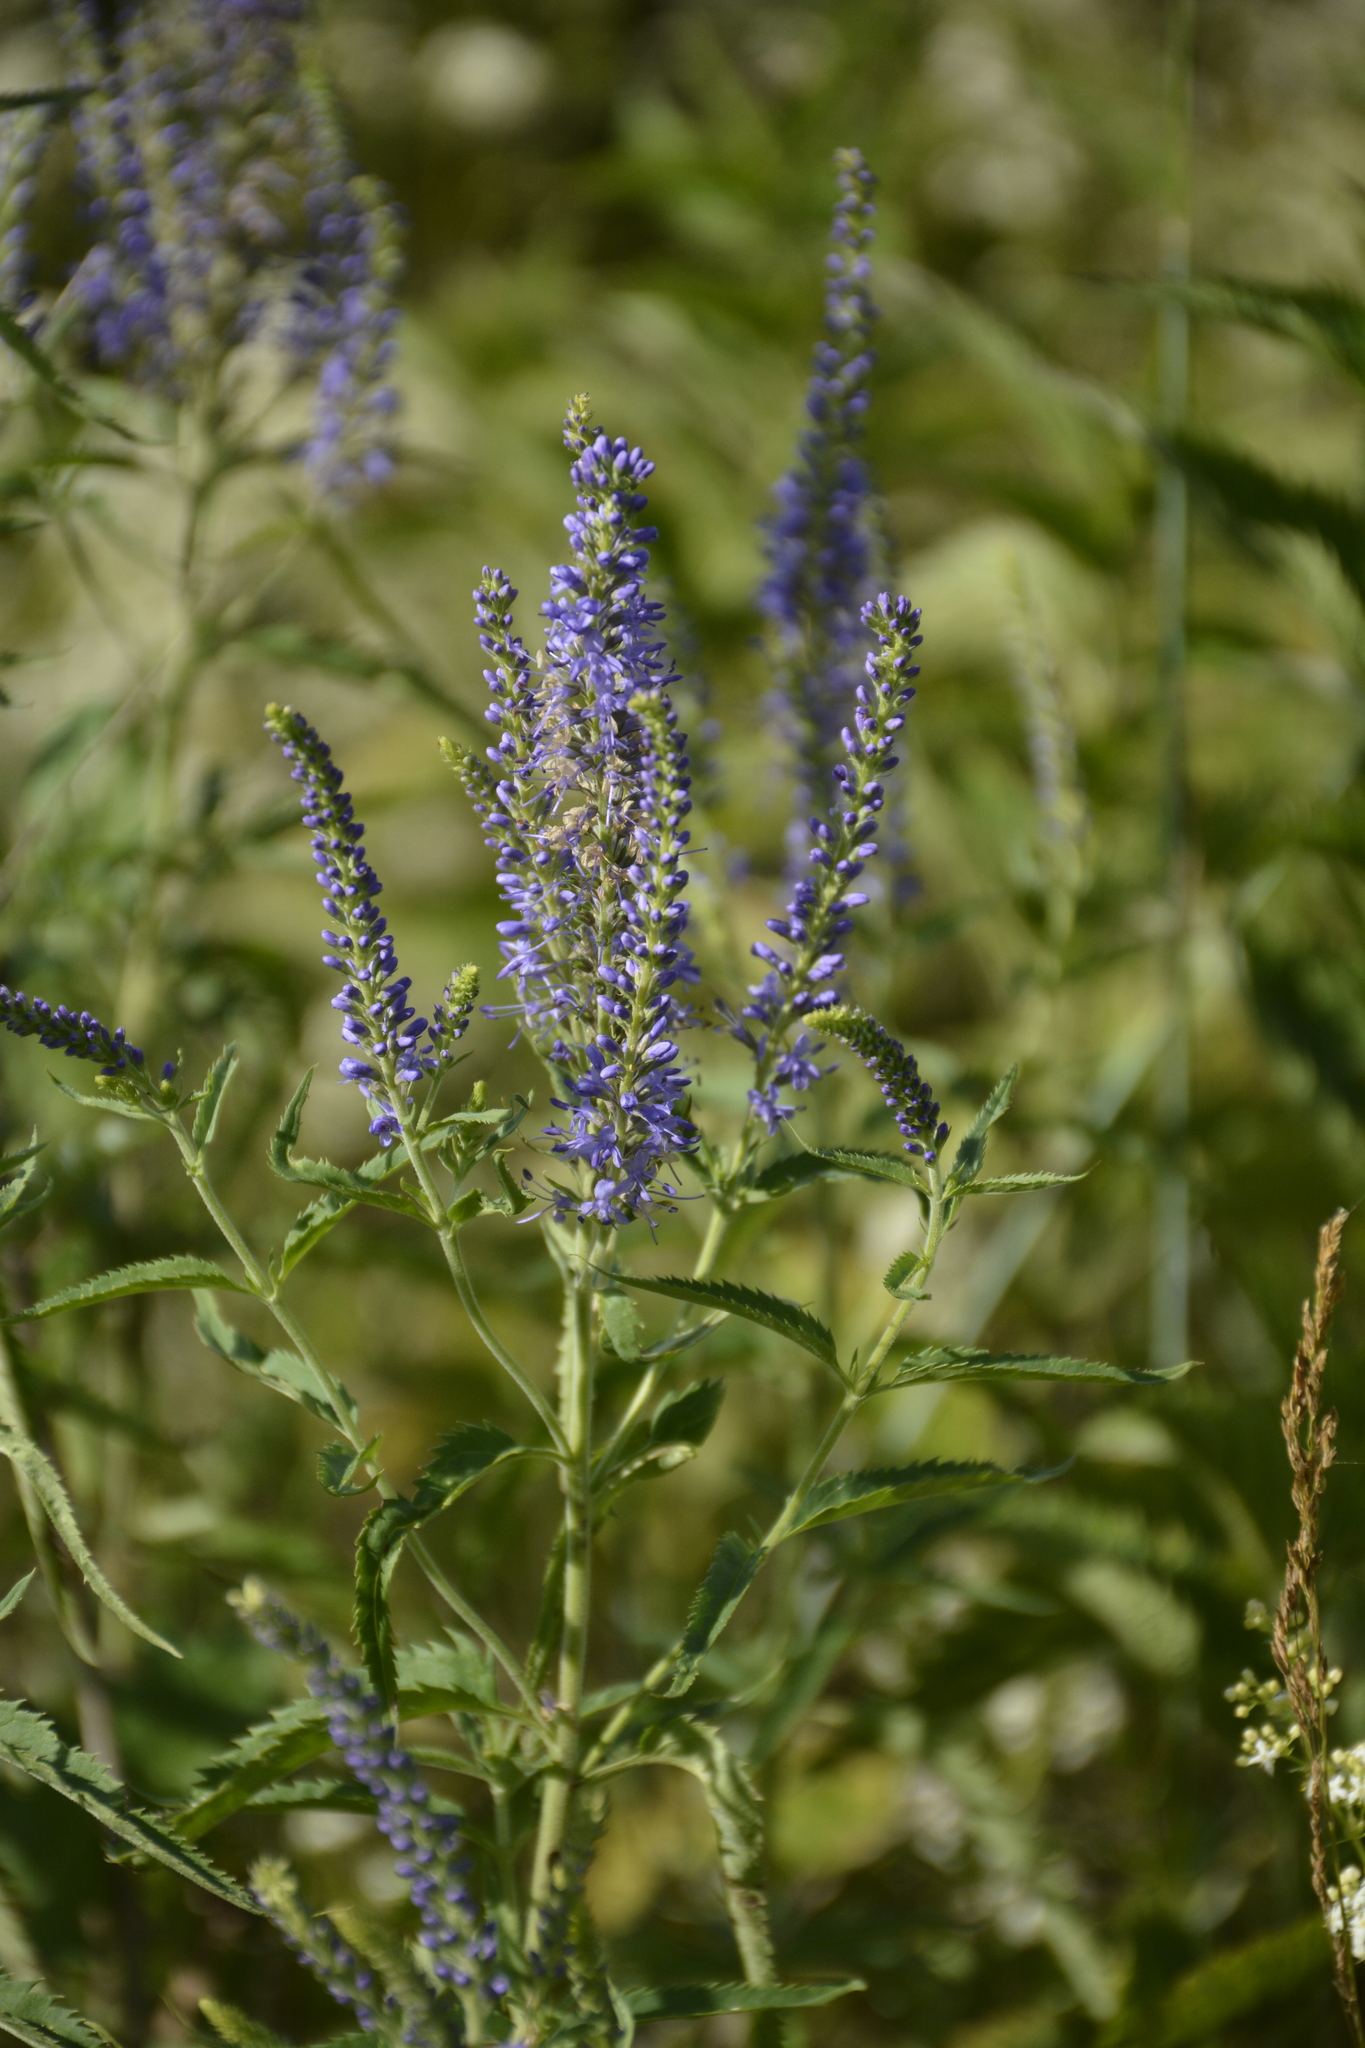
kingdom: Plantae
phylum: Tracheophyta
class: Magnoliopsida
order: Lamiales
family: Plantaginaceae
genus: Veronica
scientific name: Veronica longifolia
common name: Garden speedwell
